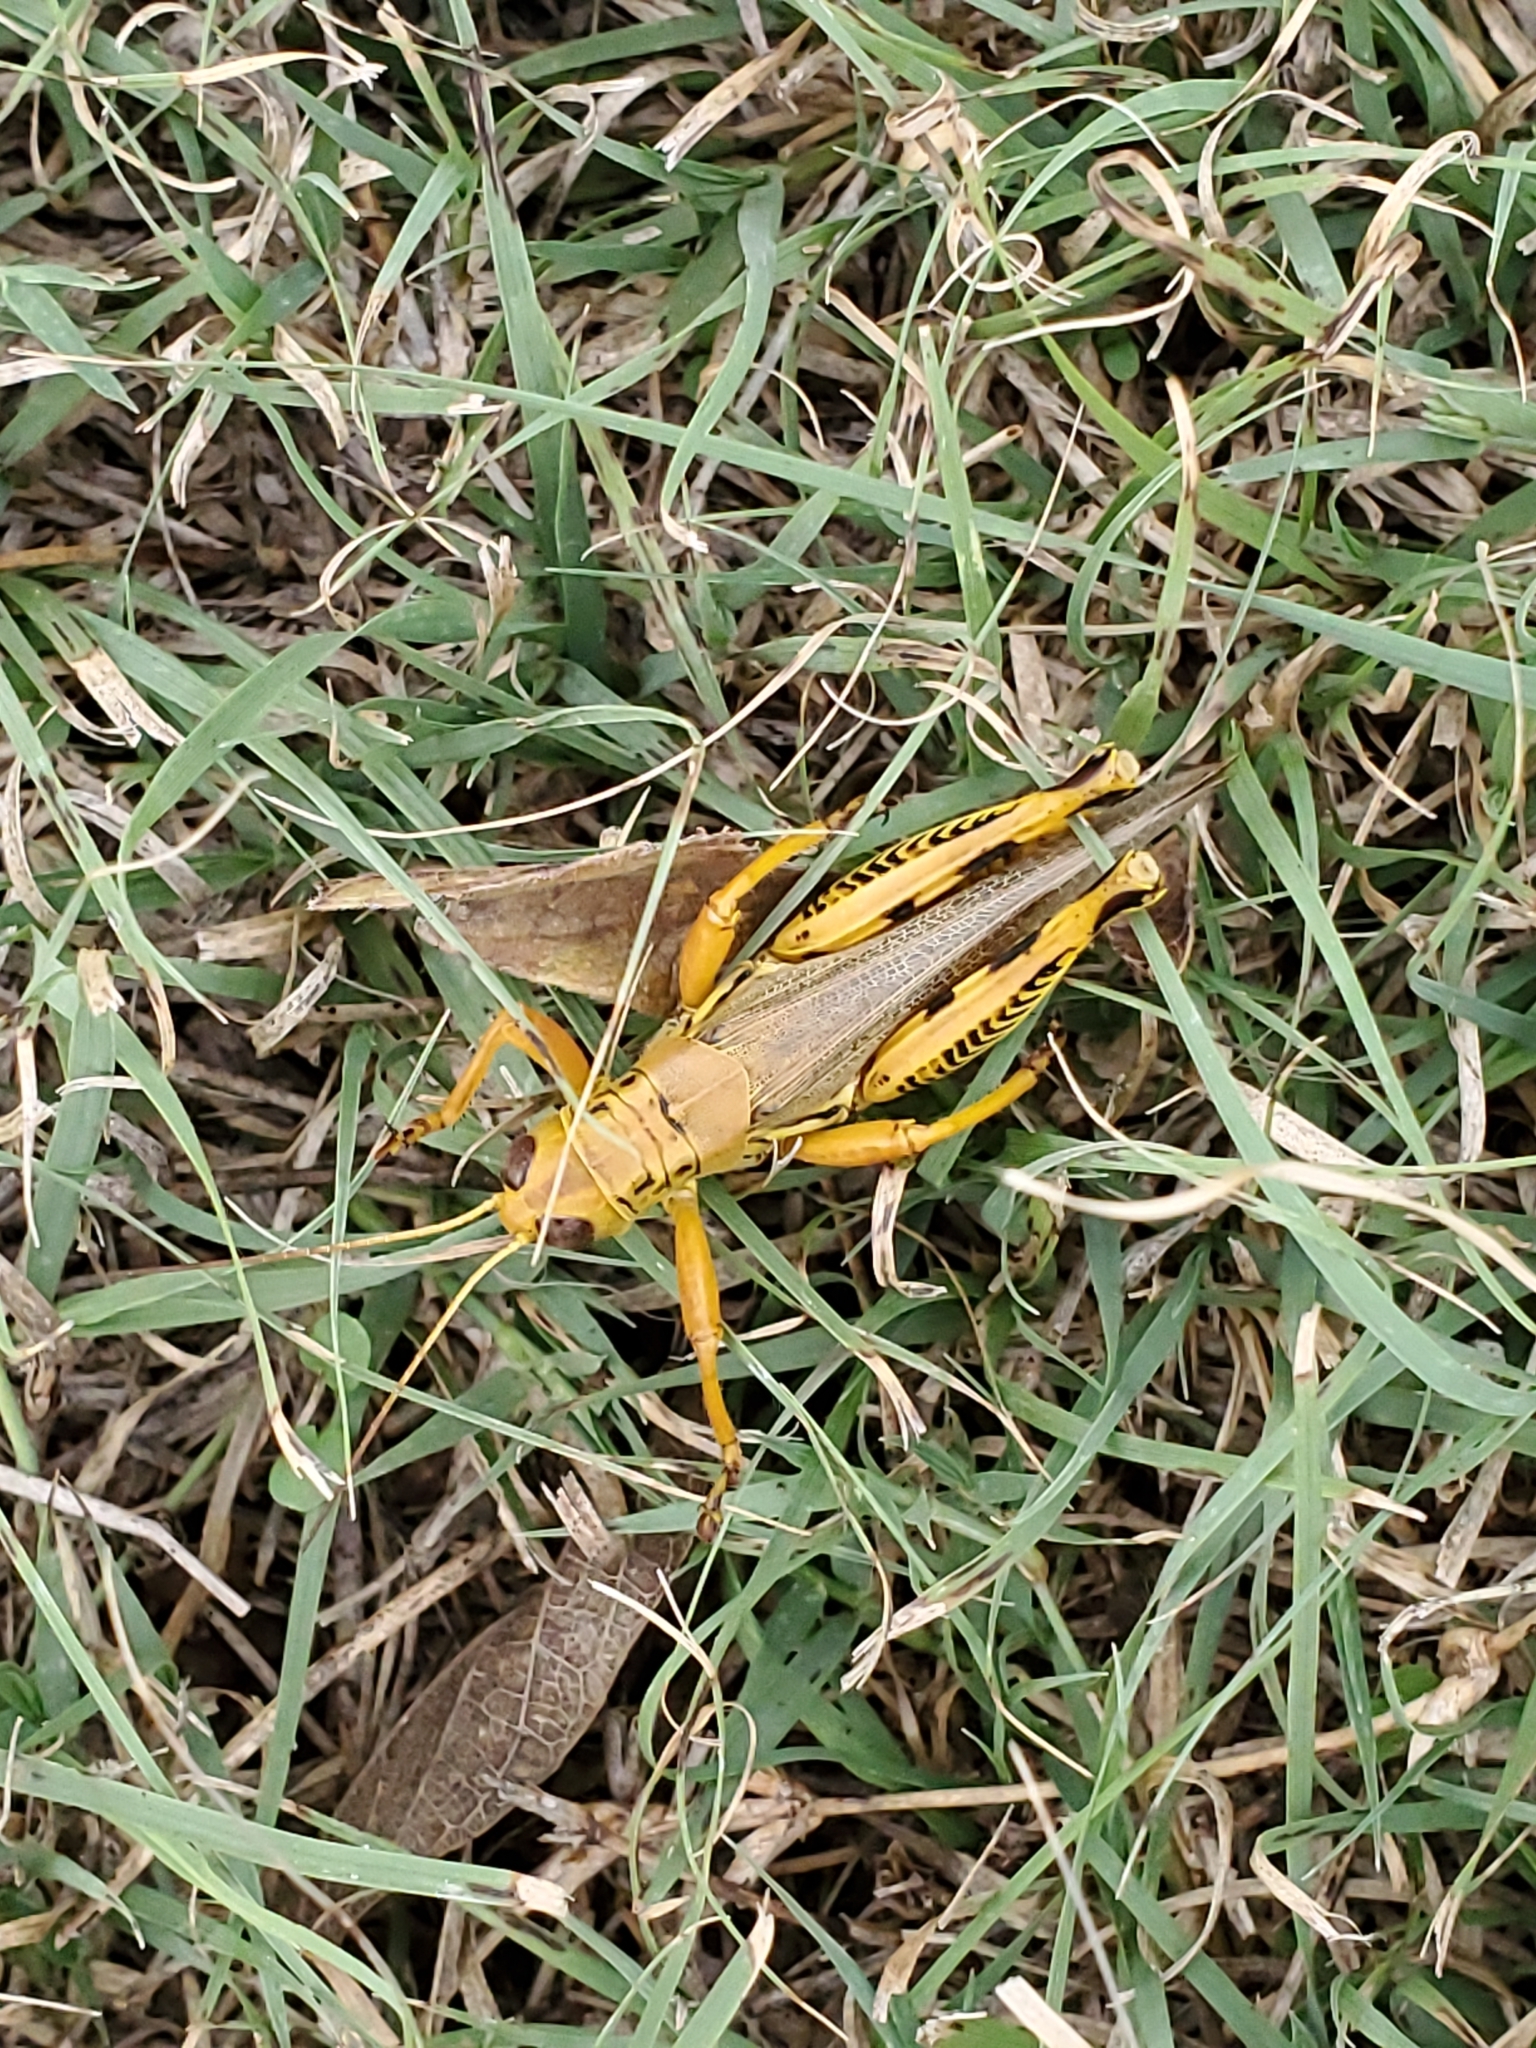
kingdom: Animalia
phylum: Arthropoda
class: Insecta
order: Orthoptera
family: Acrididae
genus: Melanoplus
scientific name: Melanoplus differentialis
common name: Differential grasshopper
